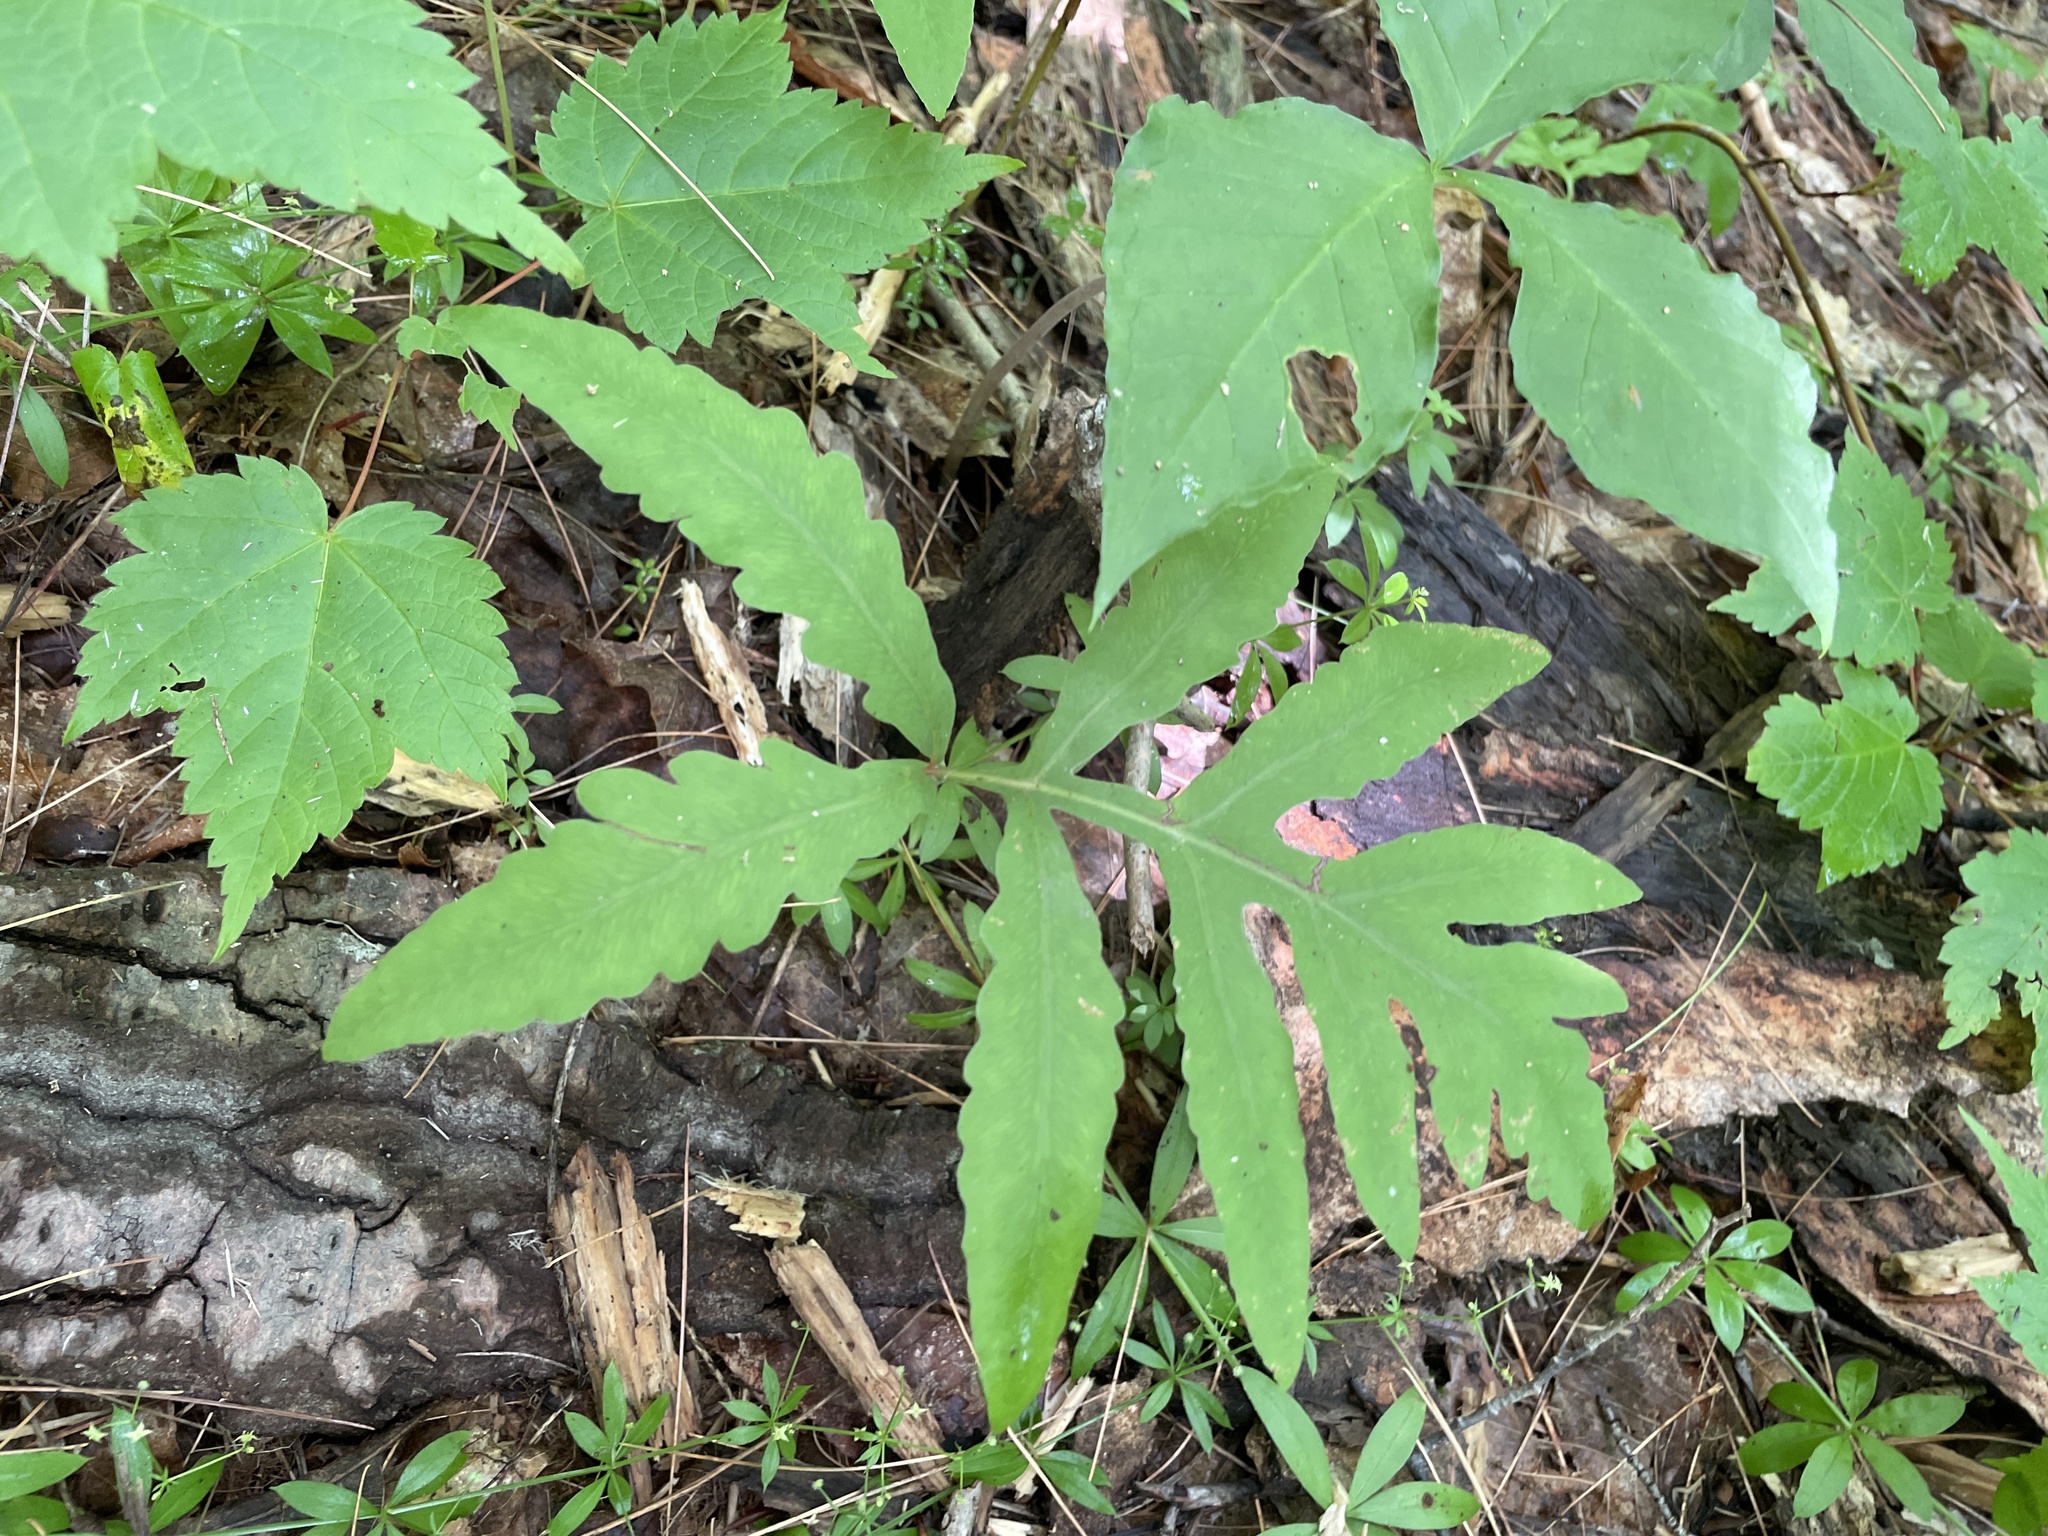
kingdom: Plantae
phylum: Tracheophyta
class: Polypodiopsida
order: Polypodiales
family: Onocleaceae
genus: Onoclea
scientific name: Onoclea sensibilis
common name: Sensitive fern
